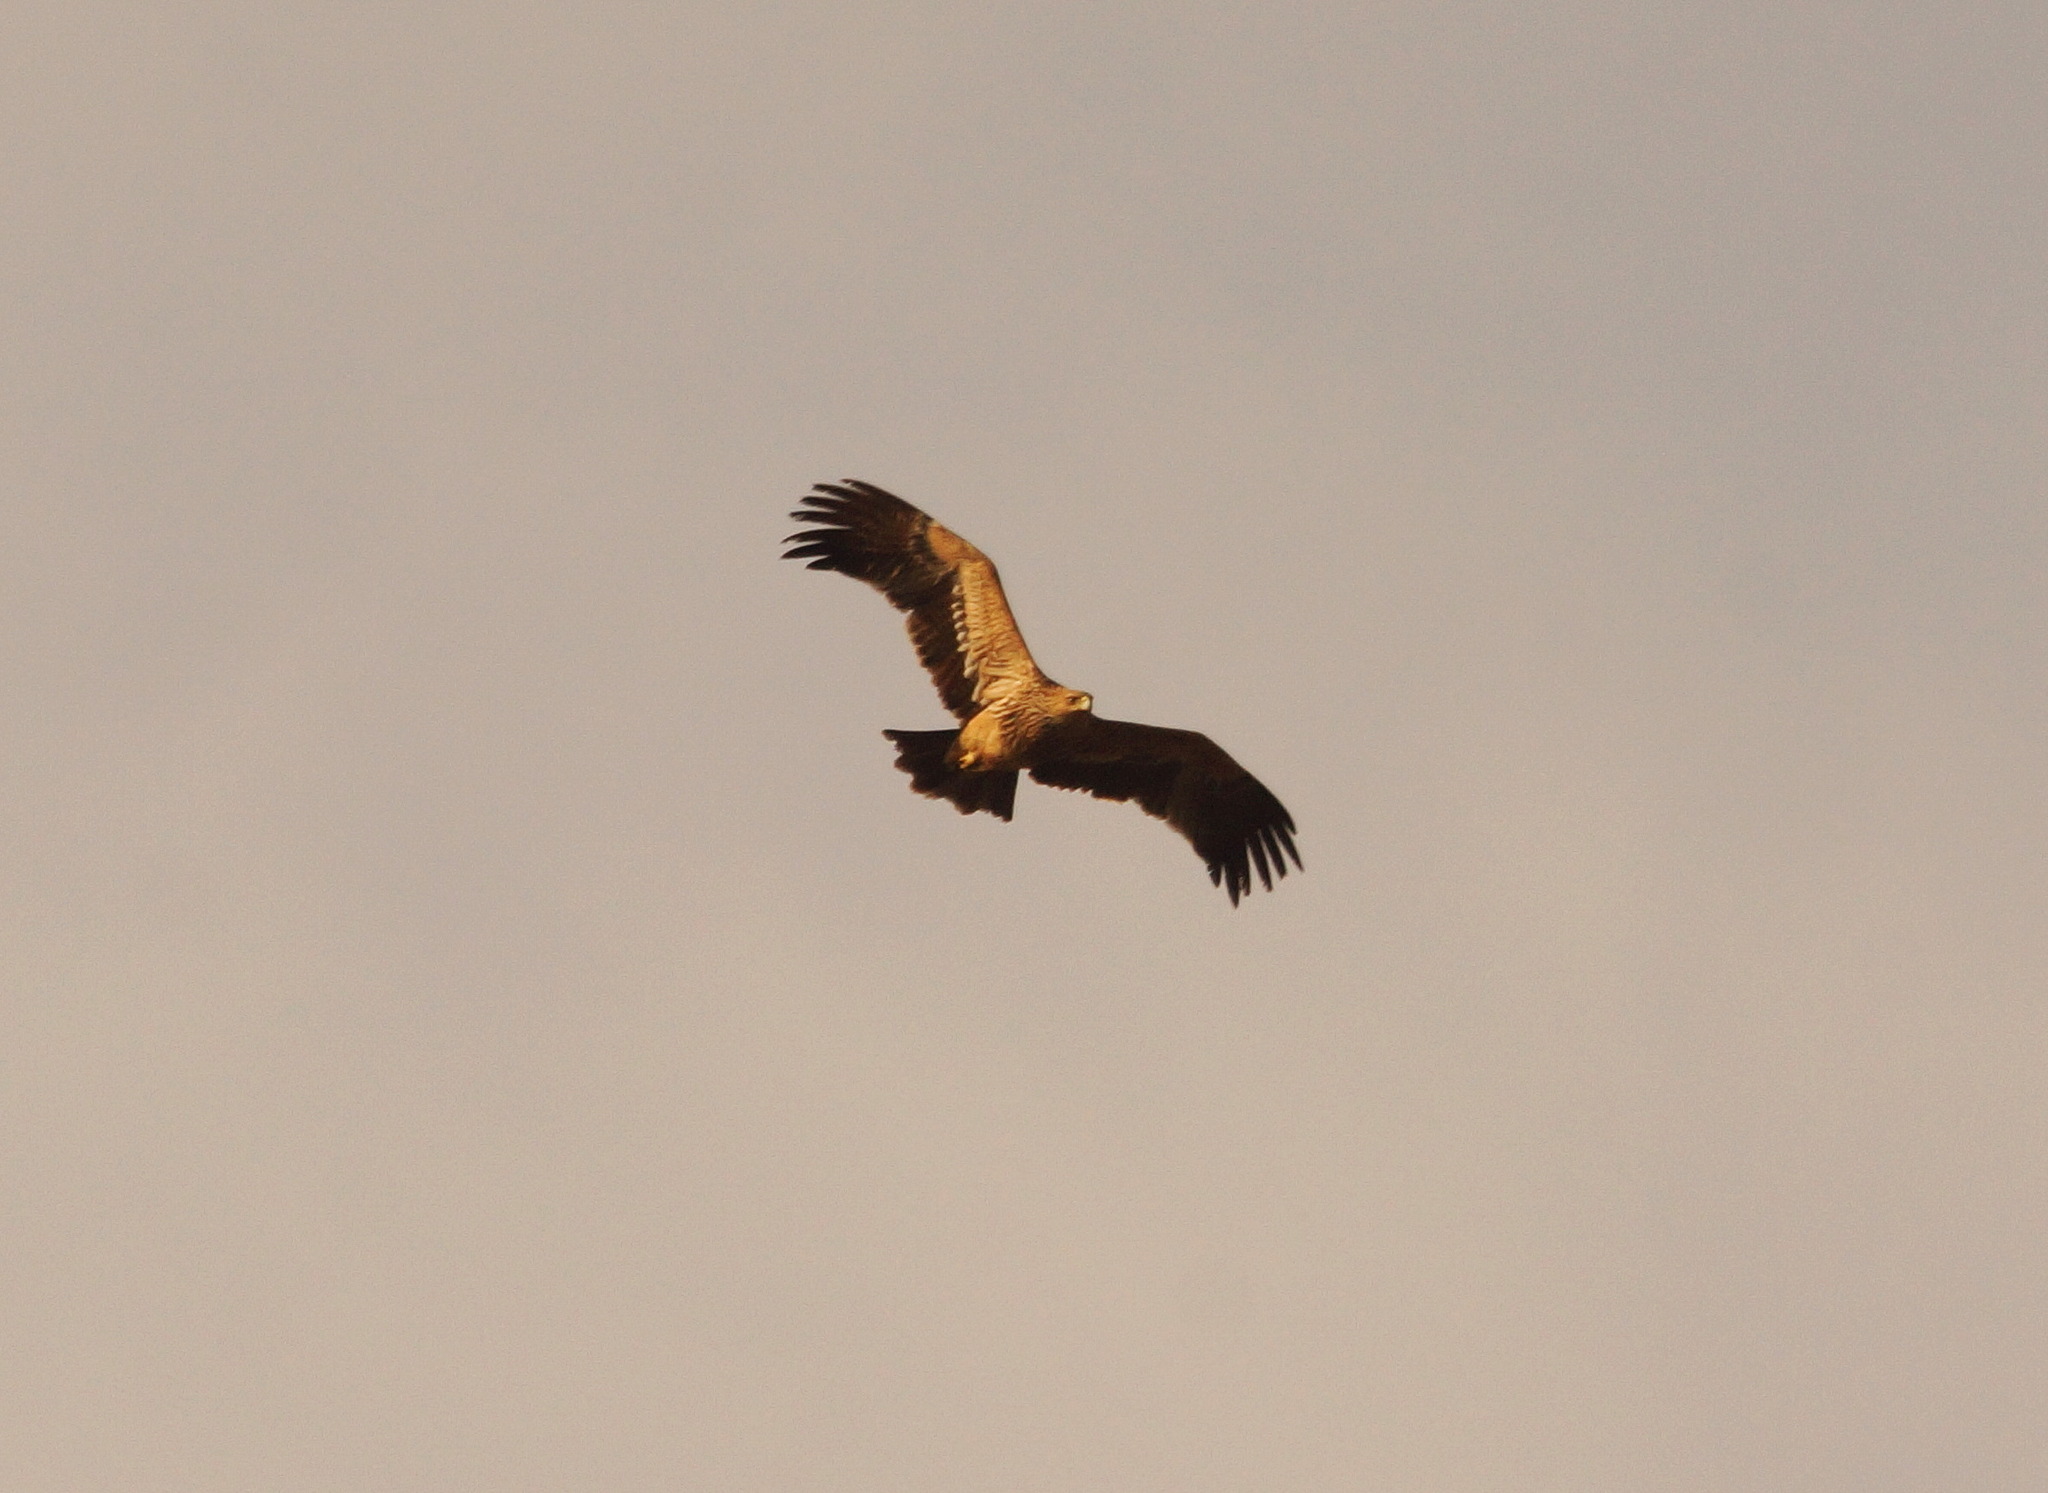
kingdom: Animalia
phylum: Chordata
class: Aves
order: Accipitriformes
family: Accipitridae
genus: Aquila
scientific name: Aquila heliaca
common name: Eastern imperial eagle
